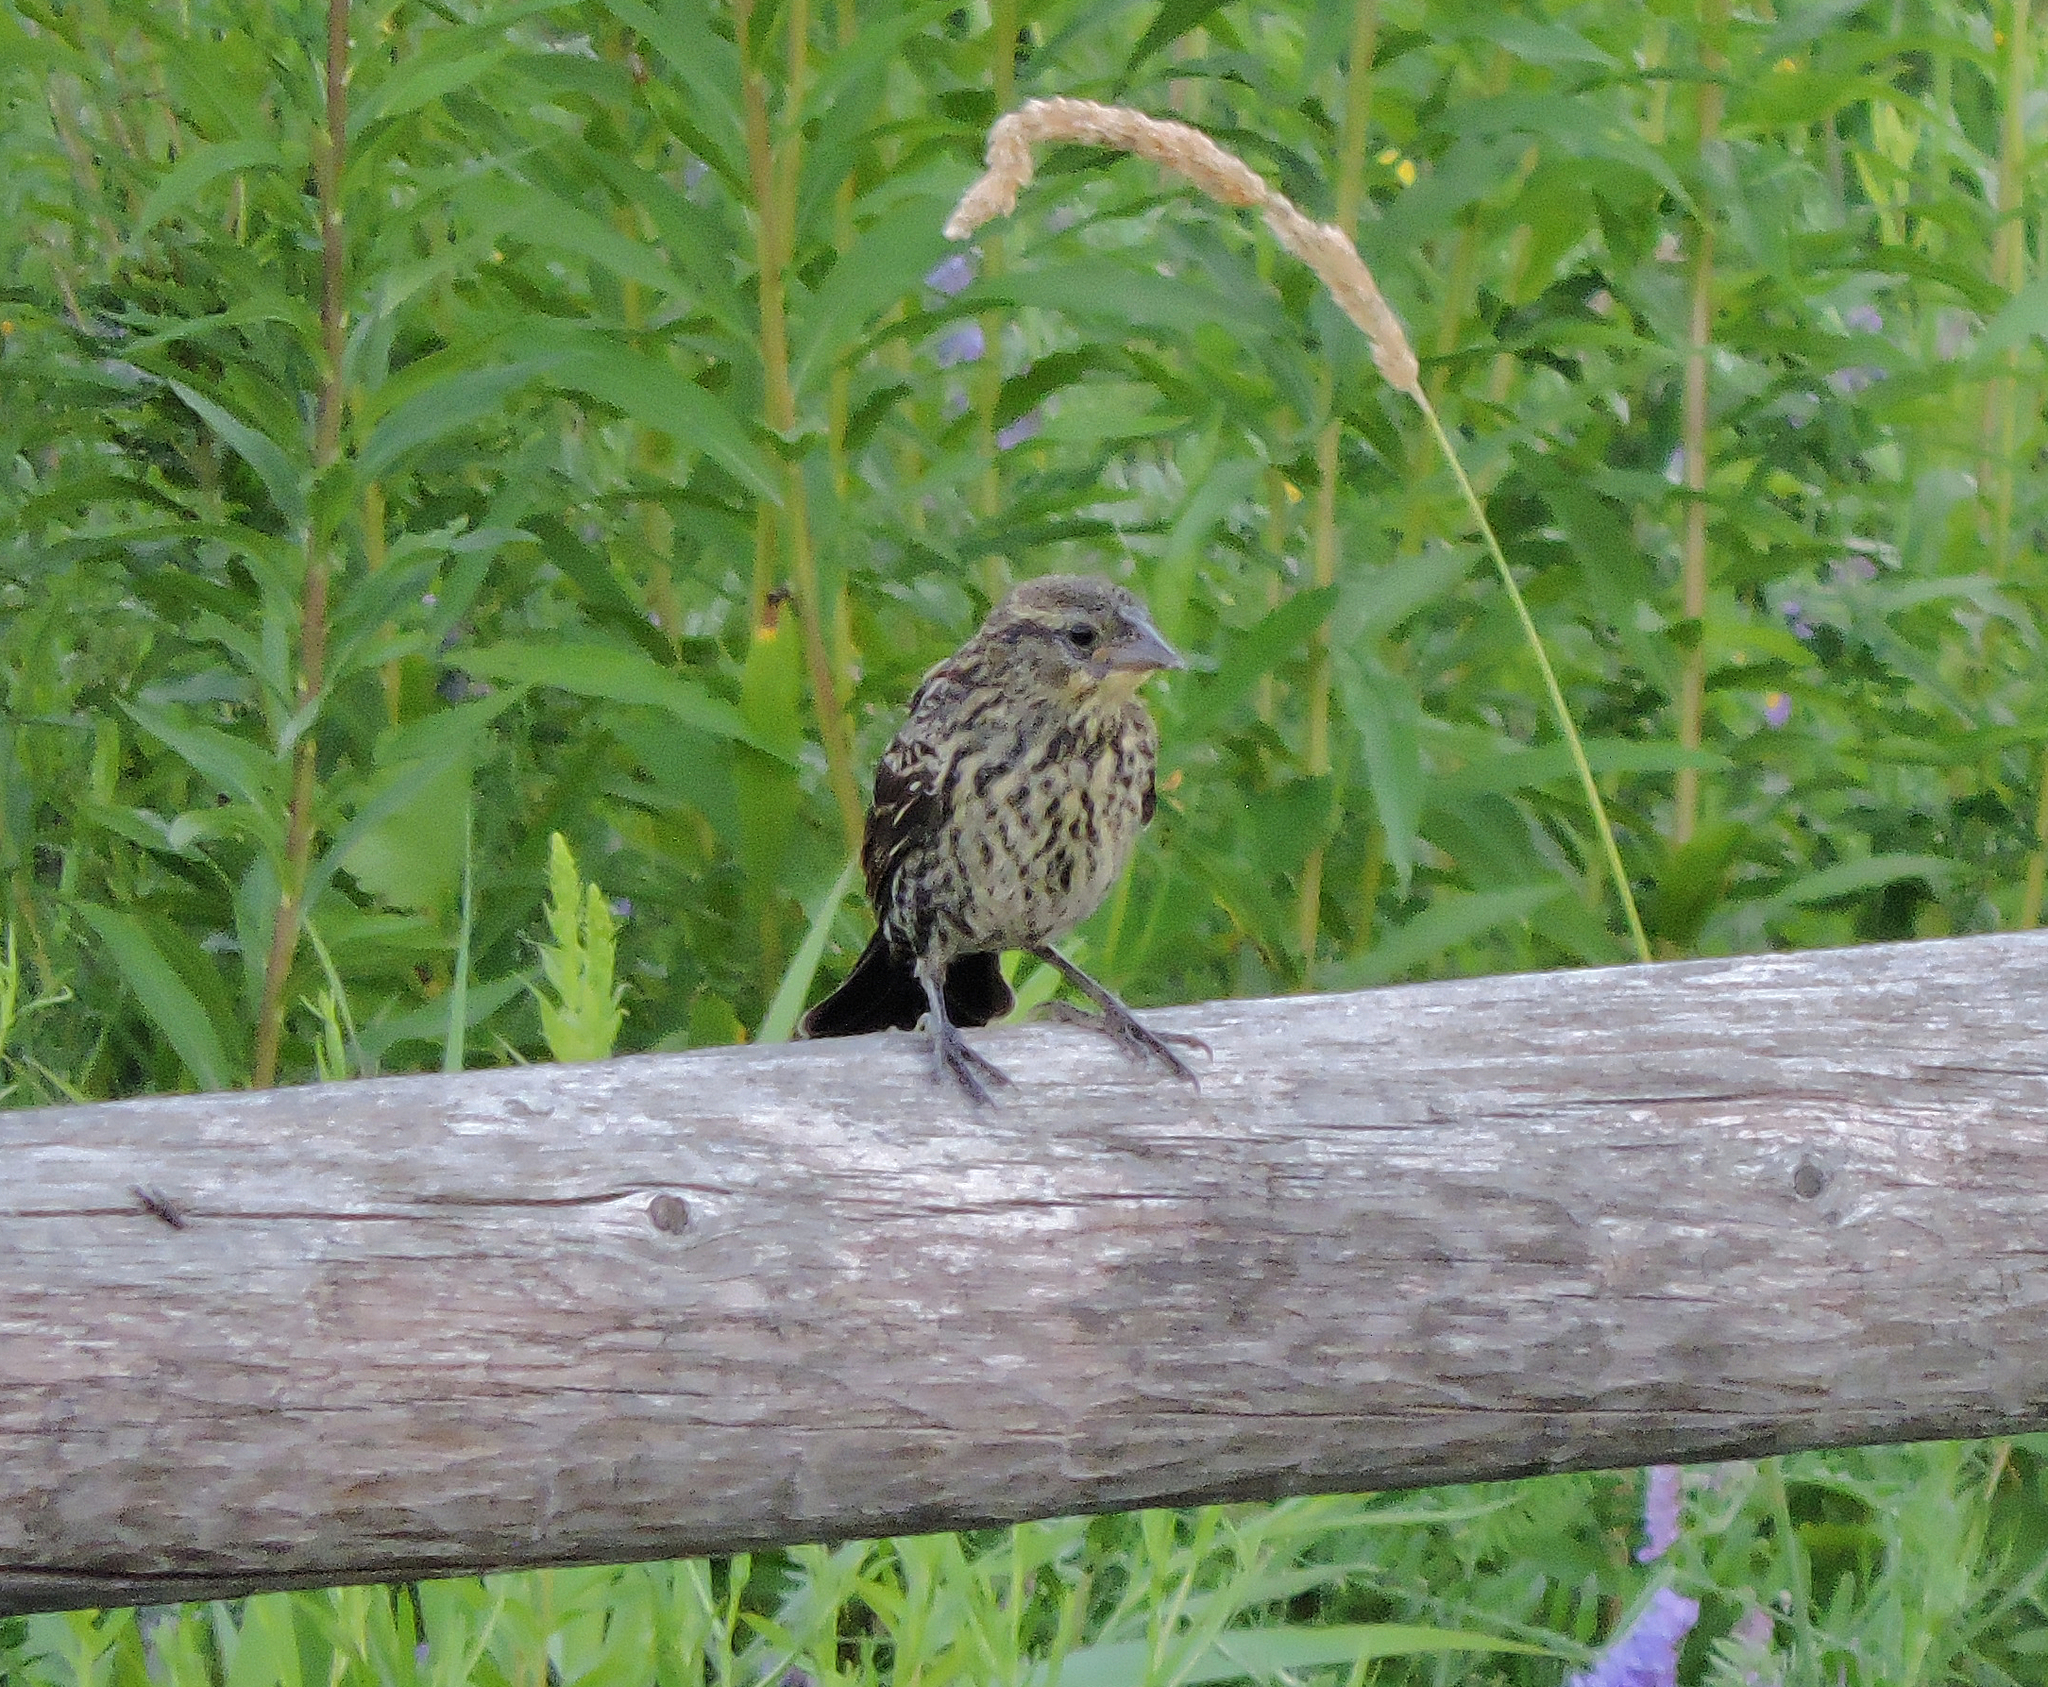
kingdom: Animalia
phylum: Chordata
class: Aves
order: Passeriformes
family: Icteridae
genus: Agelaius
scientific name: Agelaius phoeniceus
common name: Red-winged blackbird
